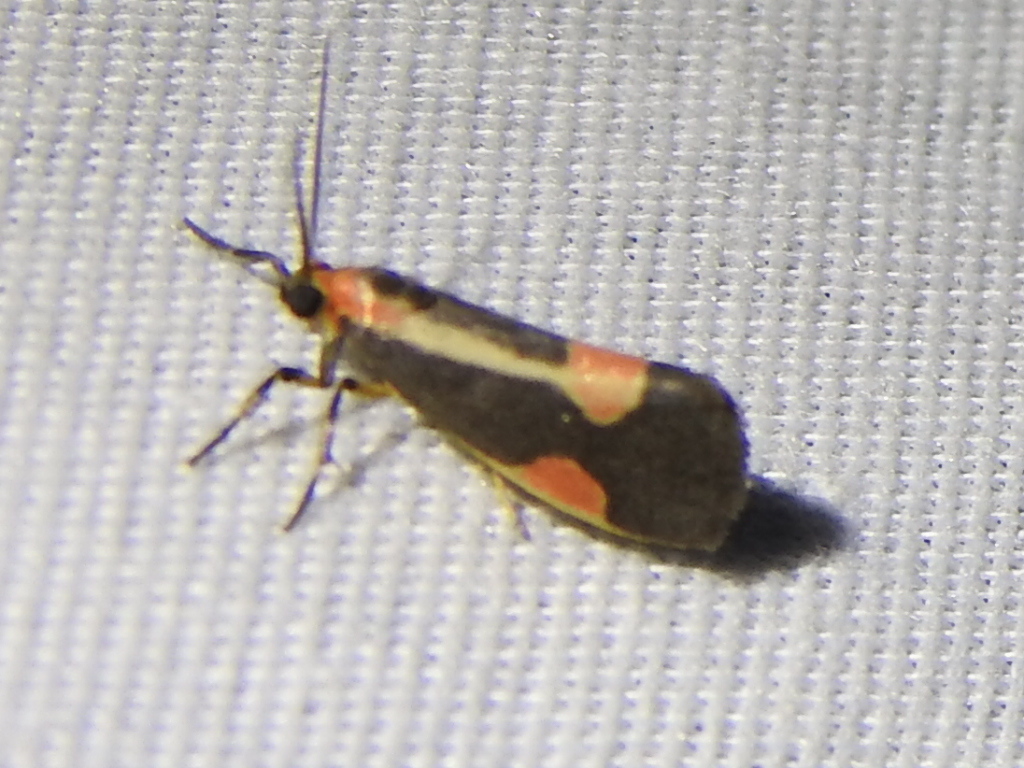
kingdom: Animalia
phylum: Arthropoda
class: Insecta
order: Lepidoptera
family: Erebidae
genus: Cisthene
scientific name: Cisthene packardii
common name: Packard's lichen moth
